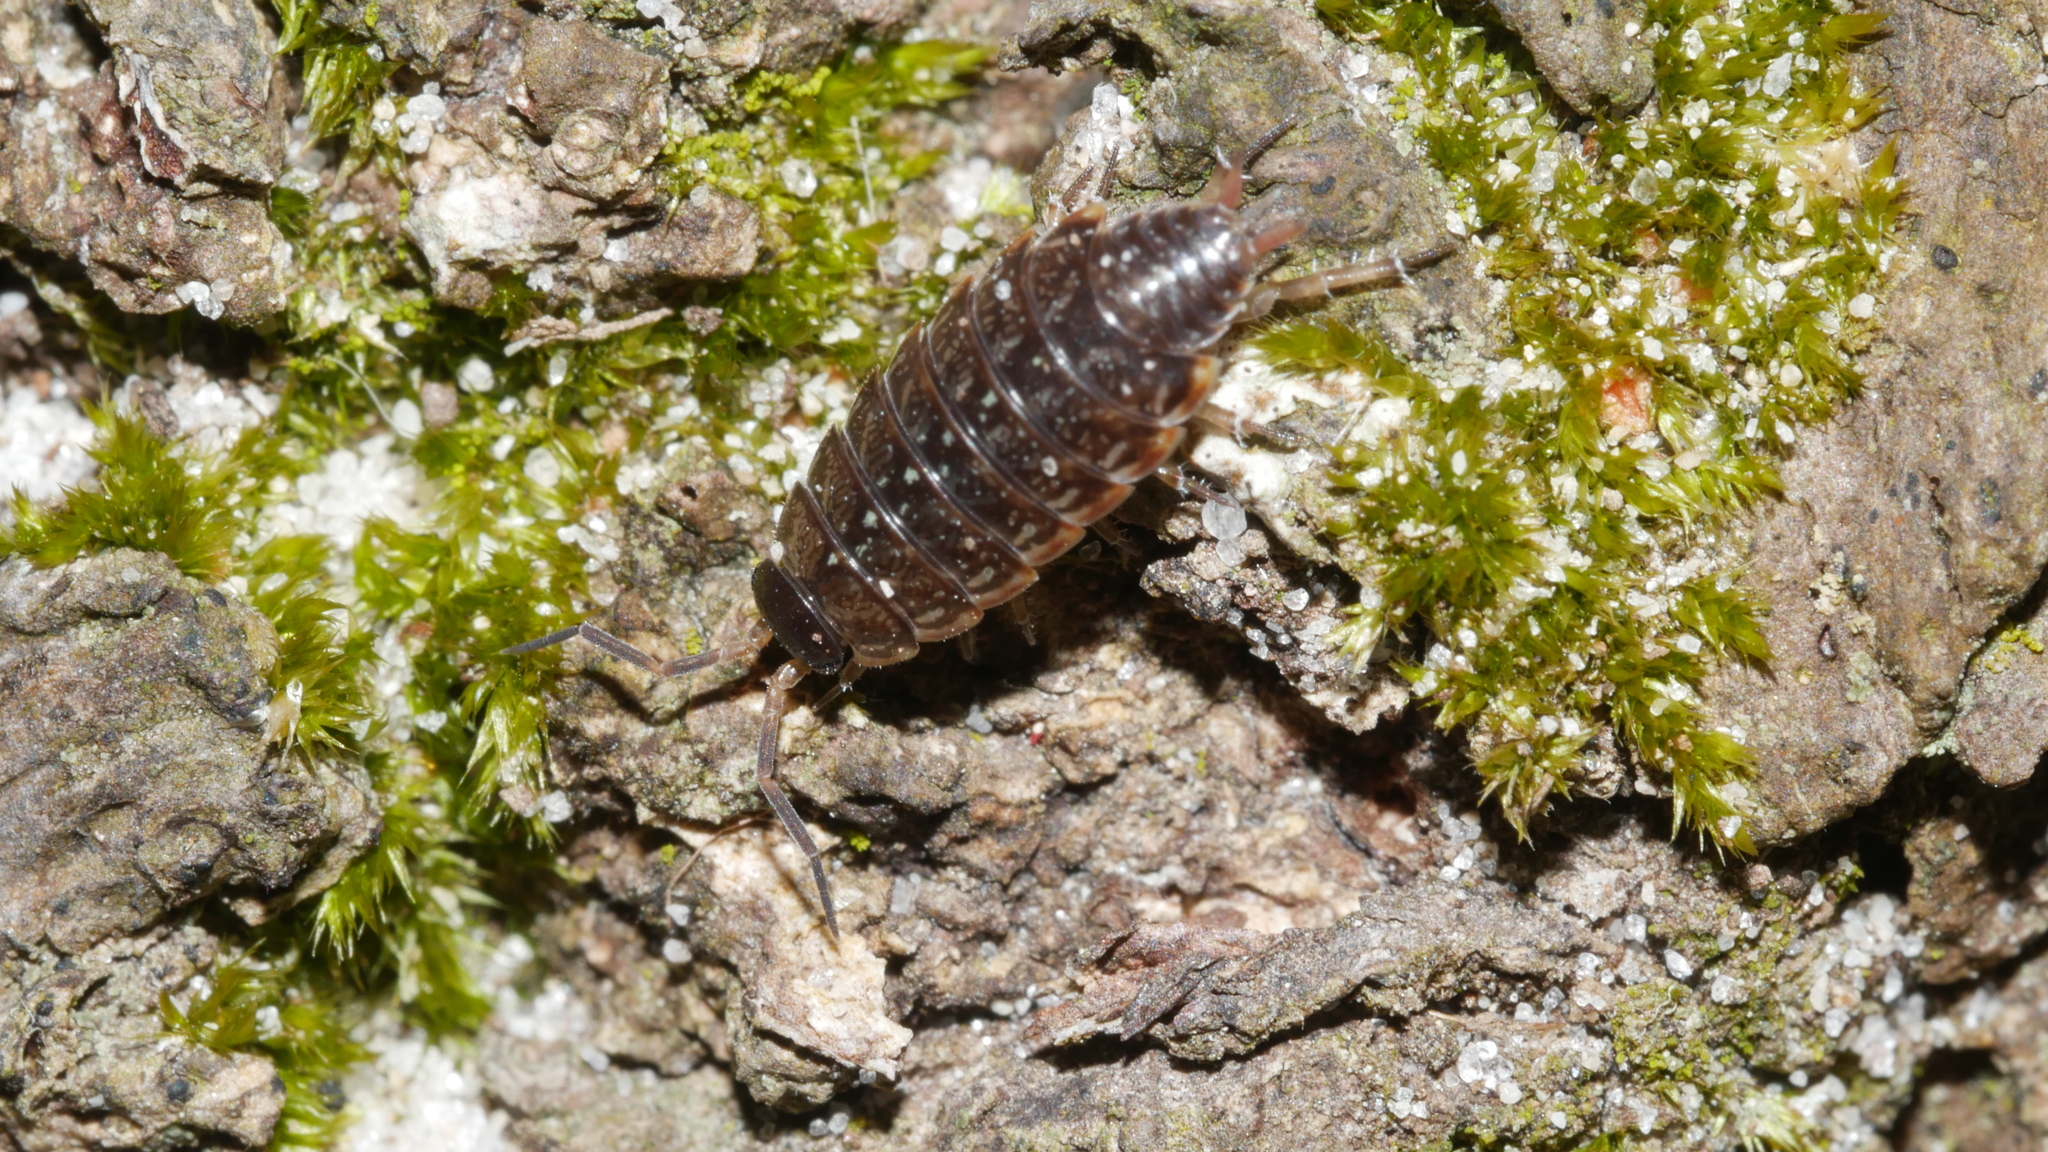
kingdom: Animalia
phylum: Arthropoda
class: Malacostraca
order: Isopoda
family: Philosciidae
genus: Philoscia
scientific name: Philoscia muscorum
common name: Common striped woodlouse
